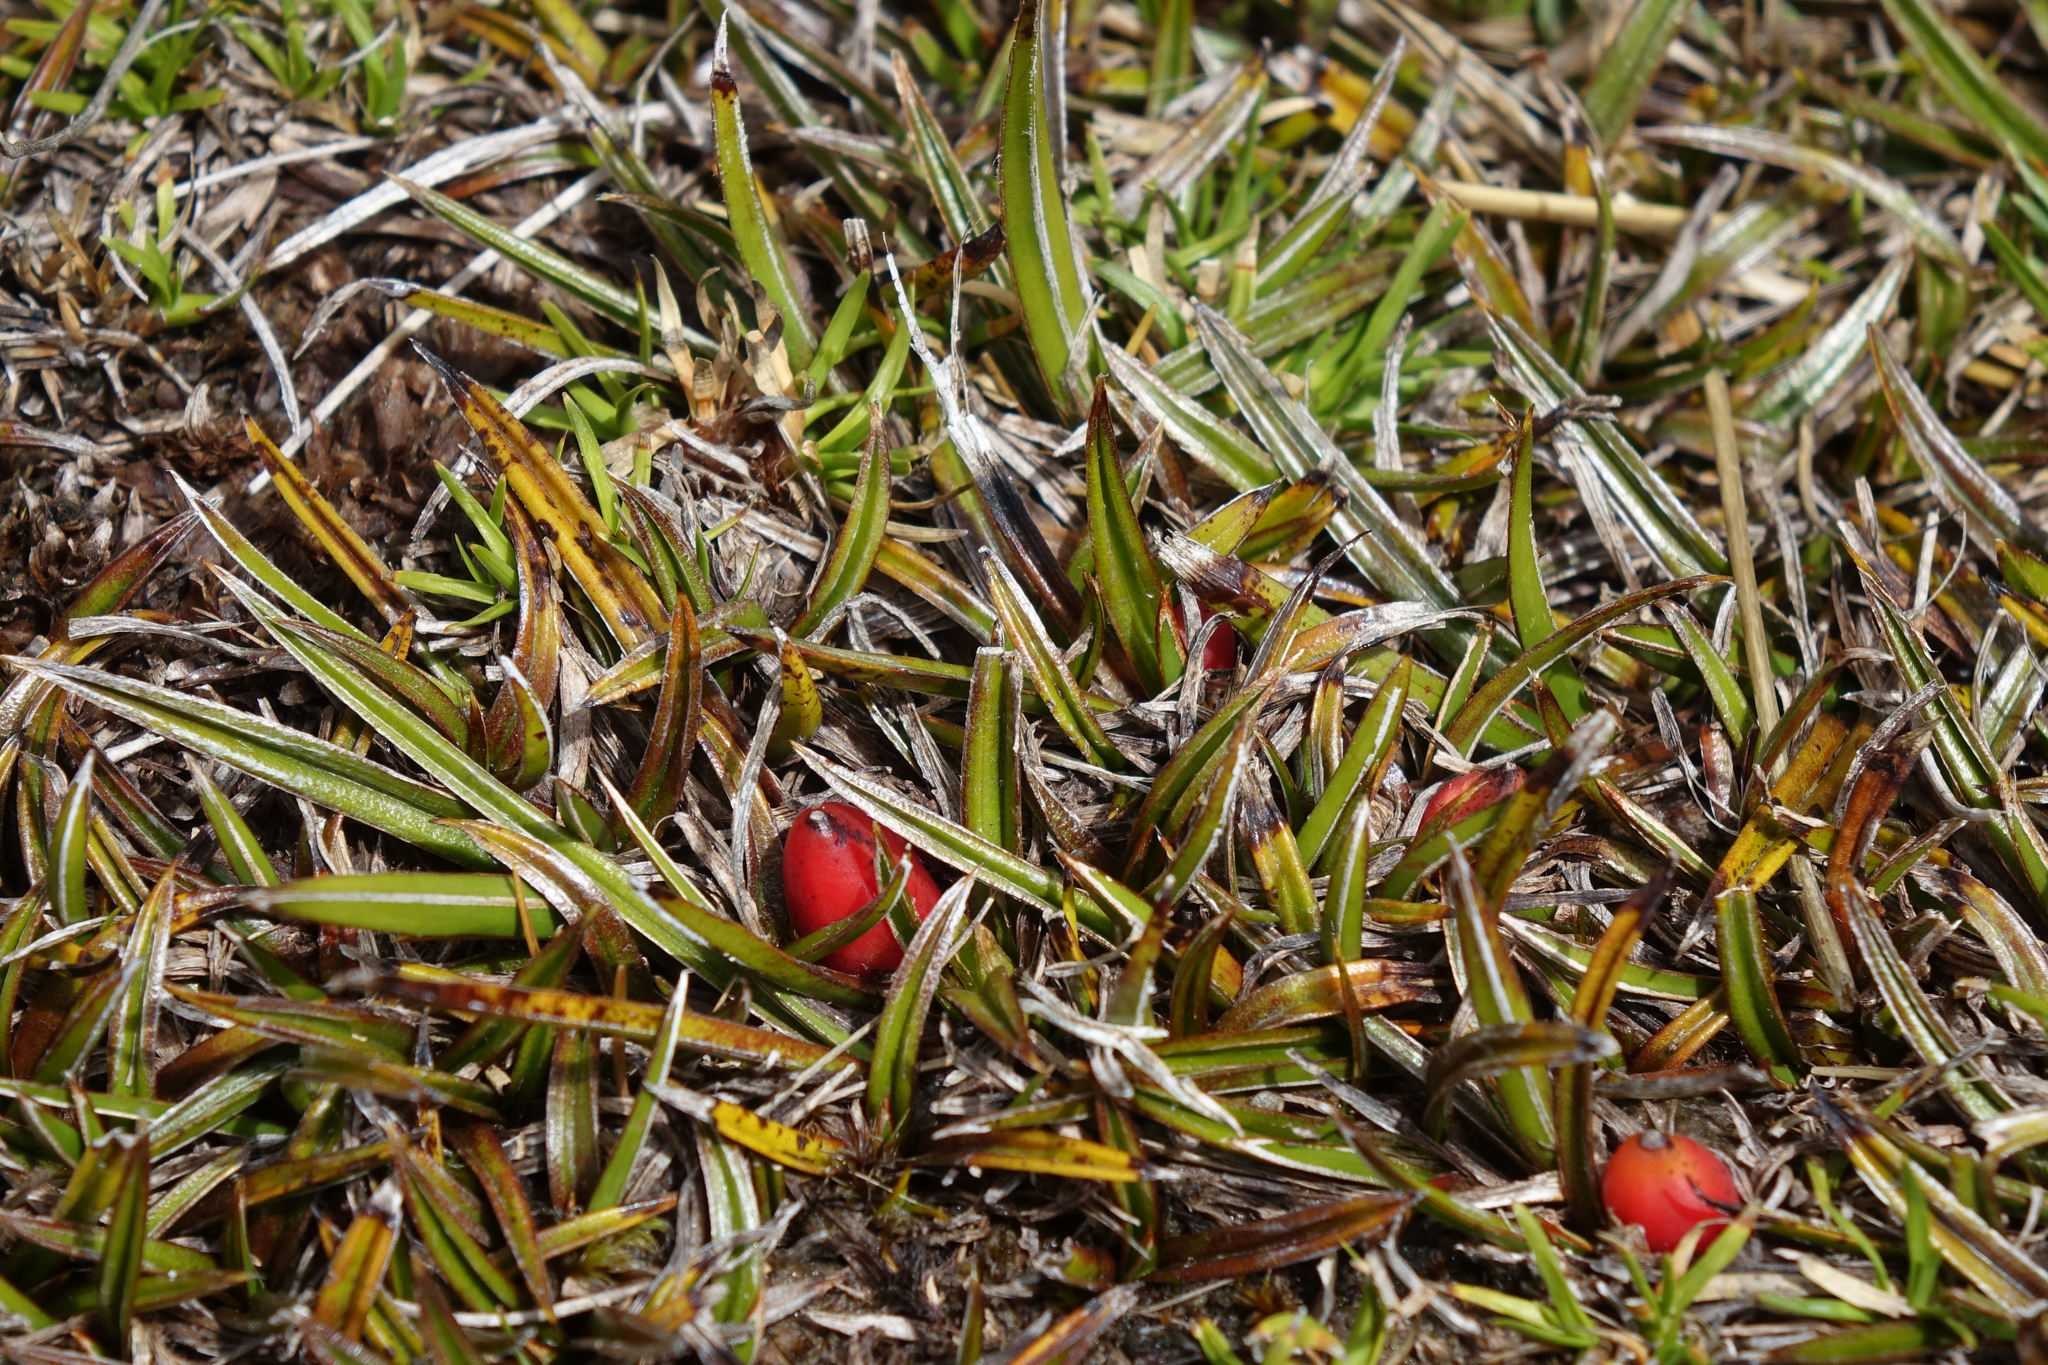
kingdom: Plantae
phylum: Tracheophyta
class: Liliopsida
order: Asparagales
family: Asteliaceae
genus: Astelia
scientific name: Astelia linearis
